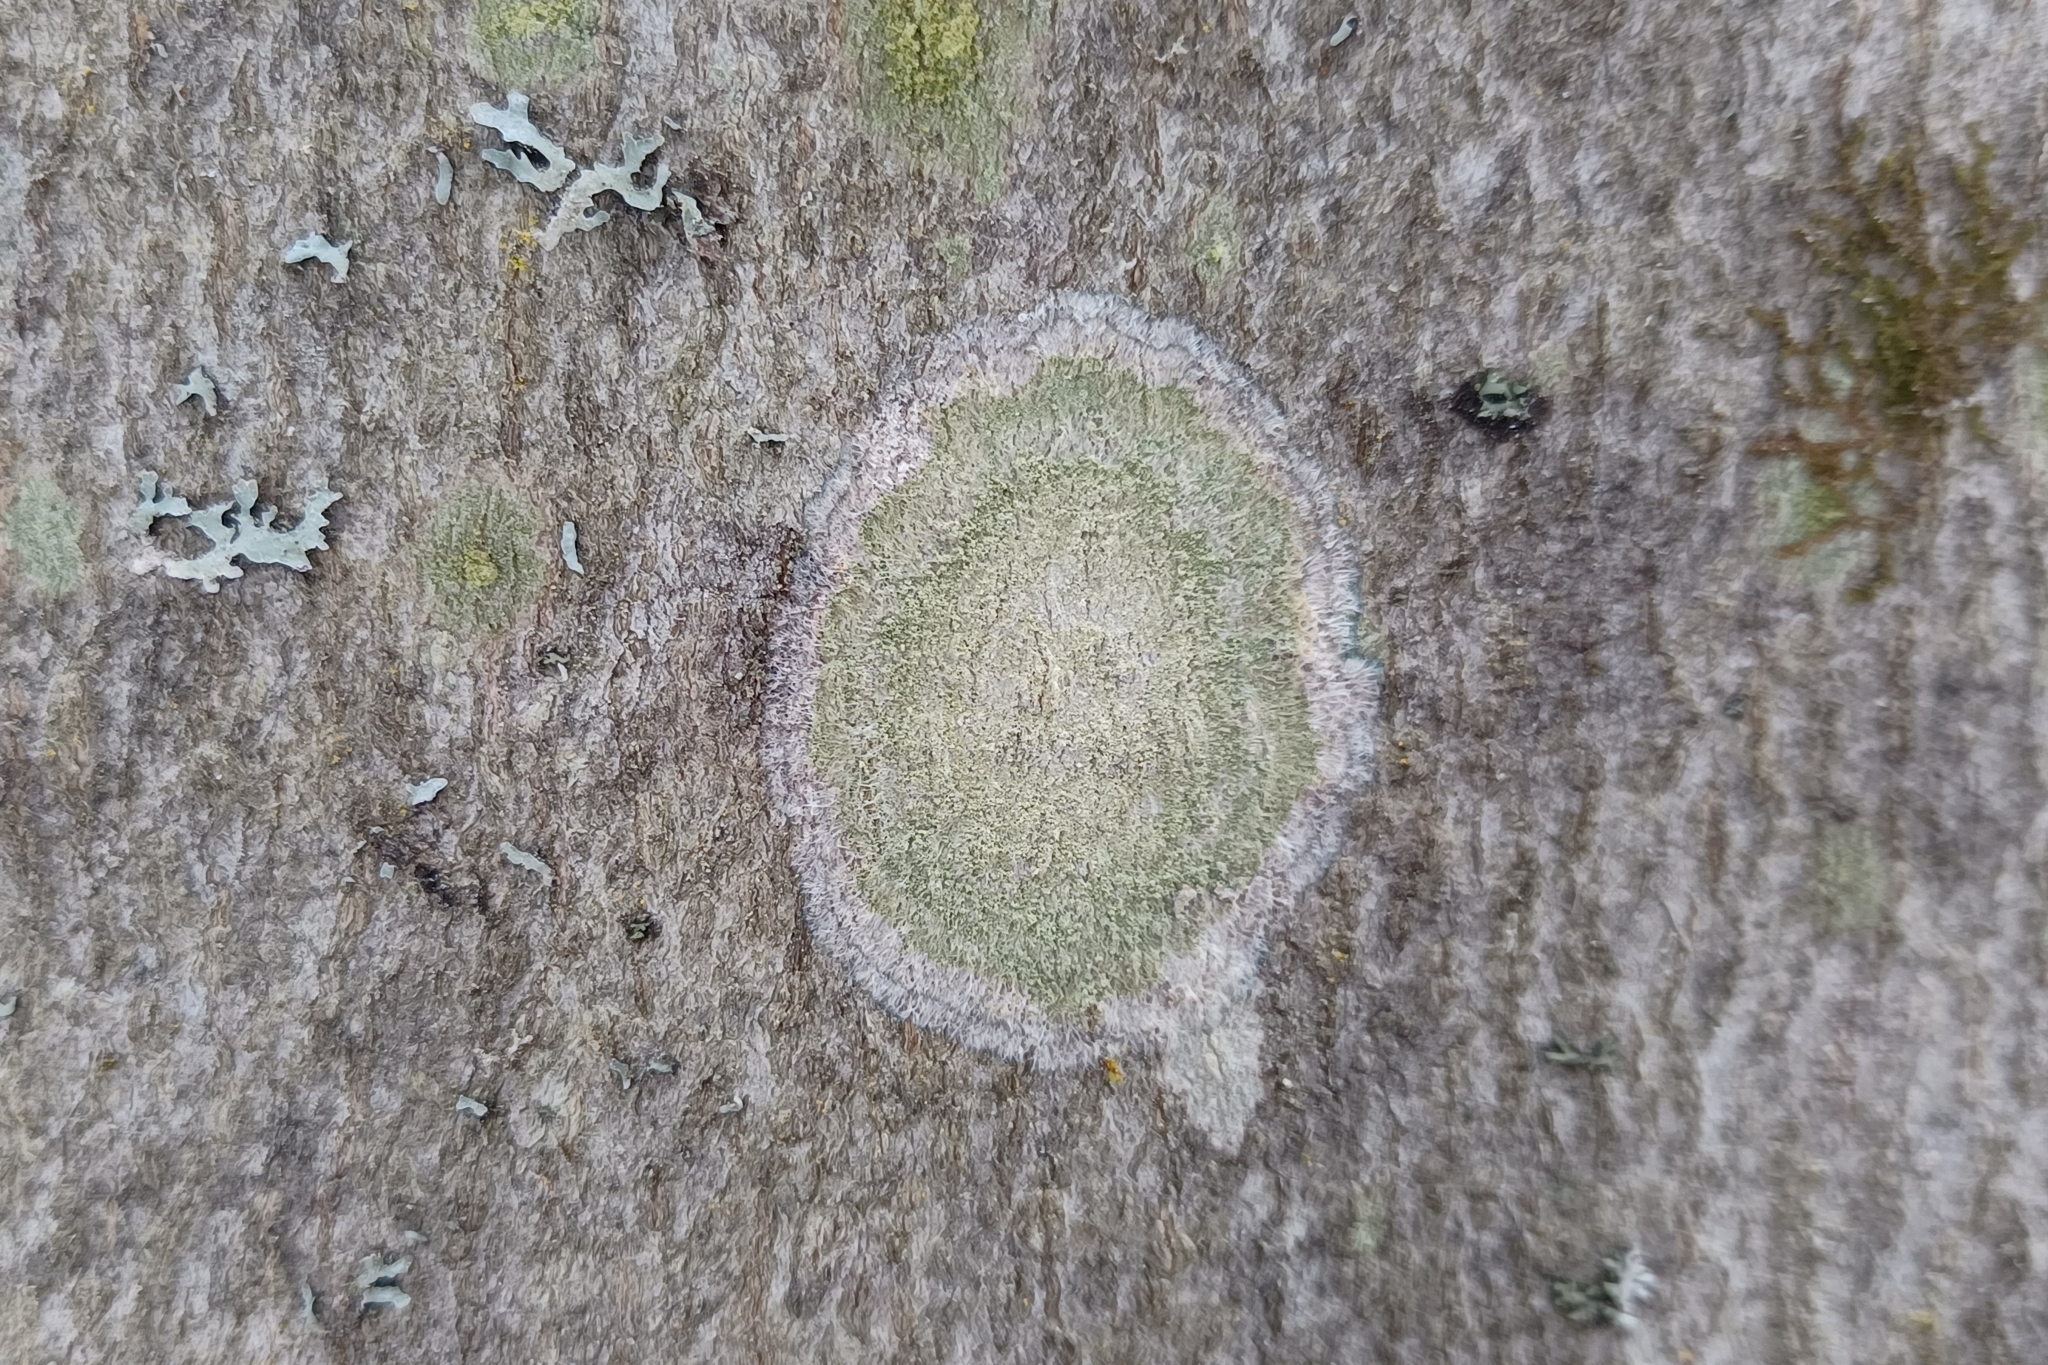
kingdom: Fungi
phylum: Ascomycota
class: Lecanoromycetes
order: Pertusariales
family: Pertusariaceae
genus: Verseghya
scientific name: Verseghya thysanophora
